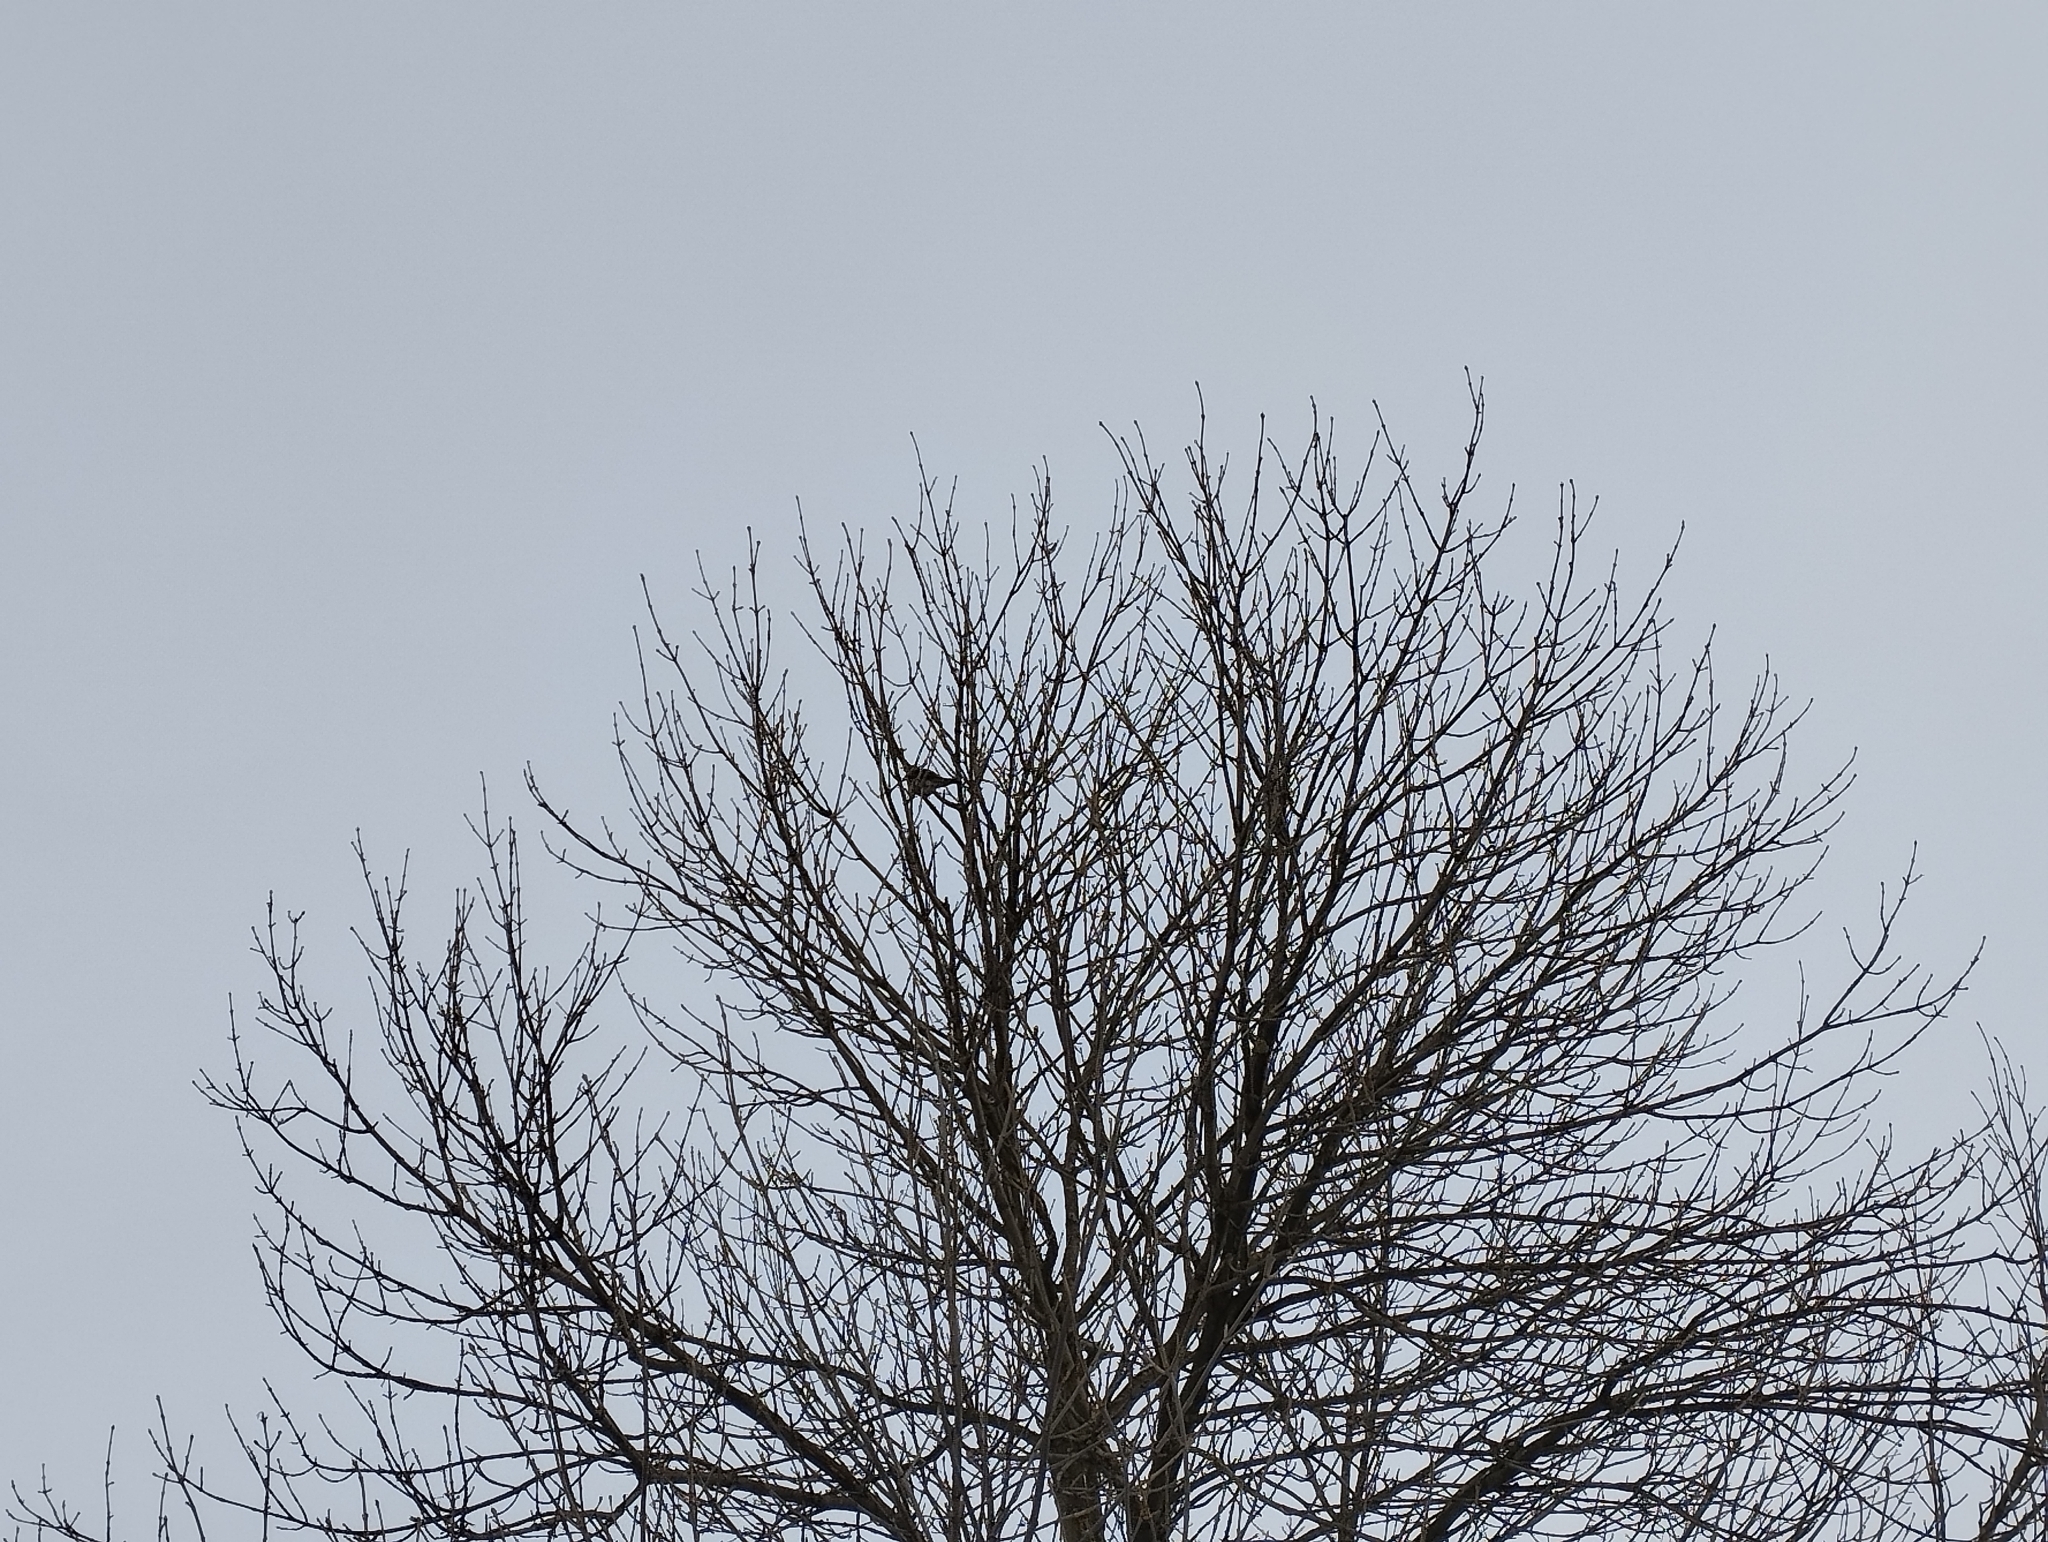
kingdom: Animalia
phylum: Chordata
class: Aves
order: Passeriformes
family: Turdidae
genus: Turdus
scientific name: Turdus pilaris
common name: Fieldfare
